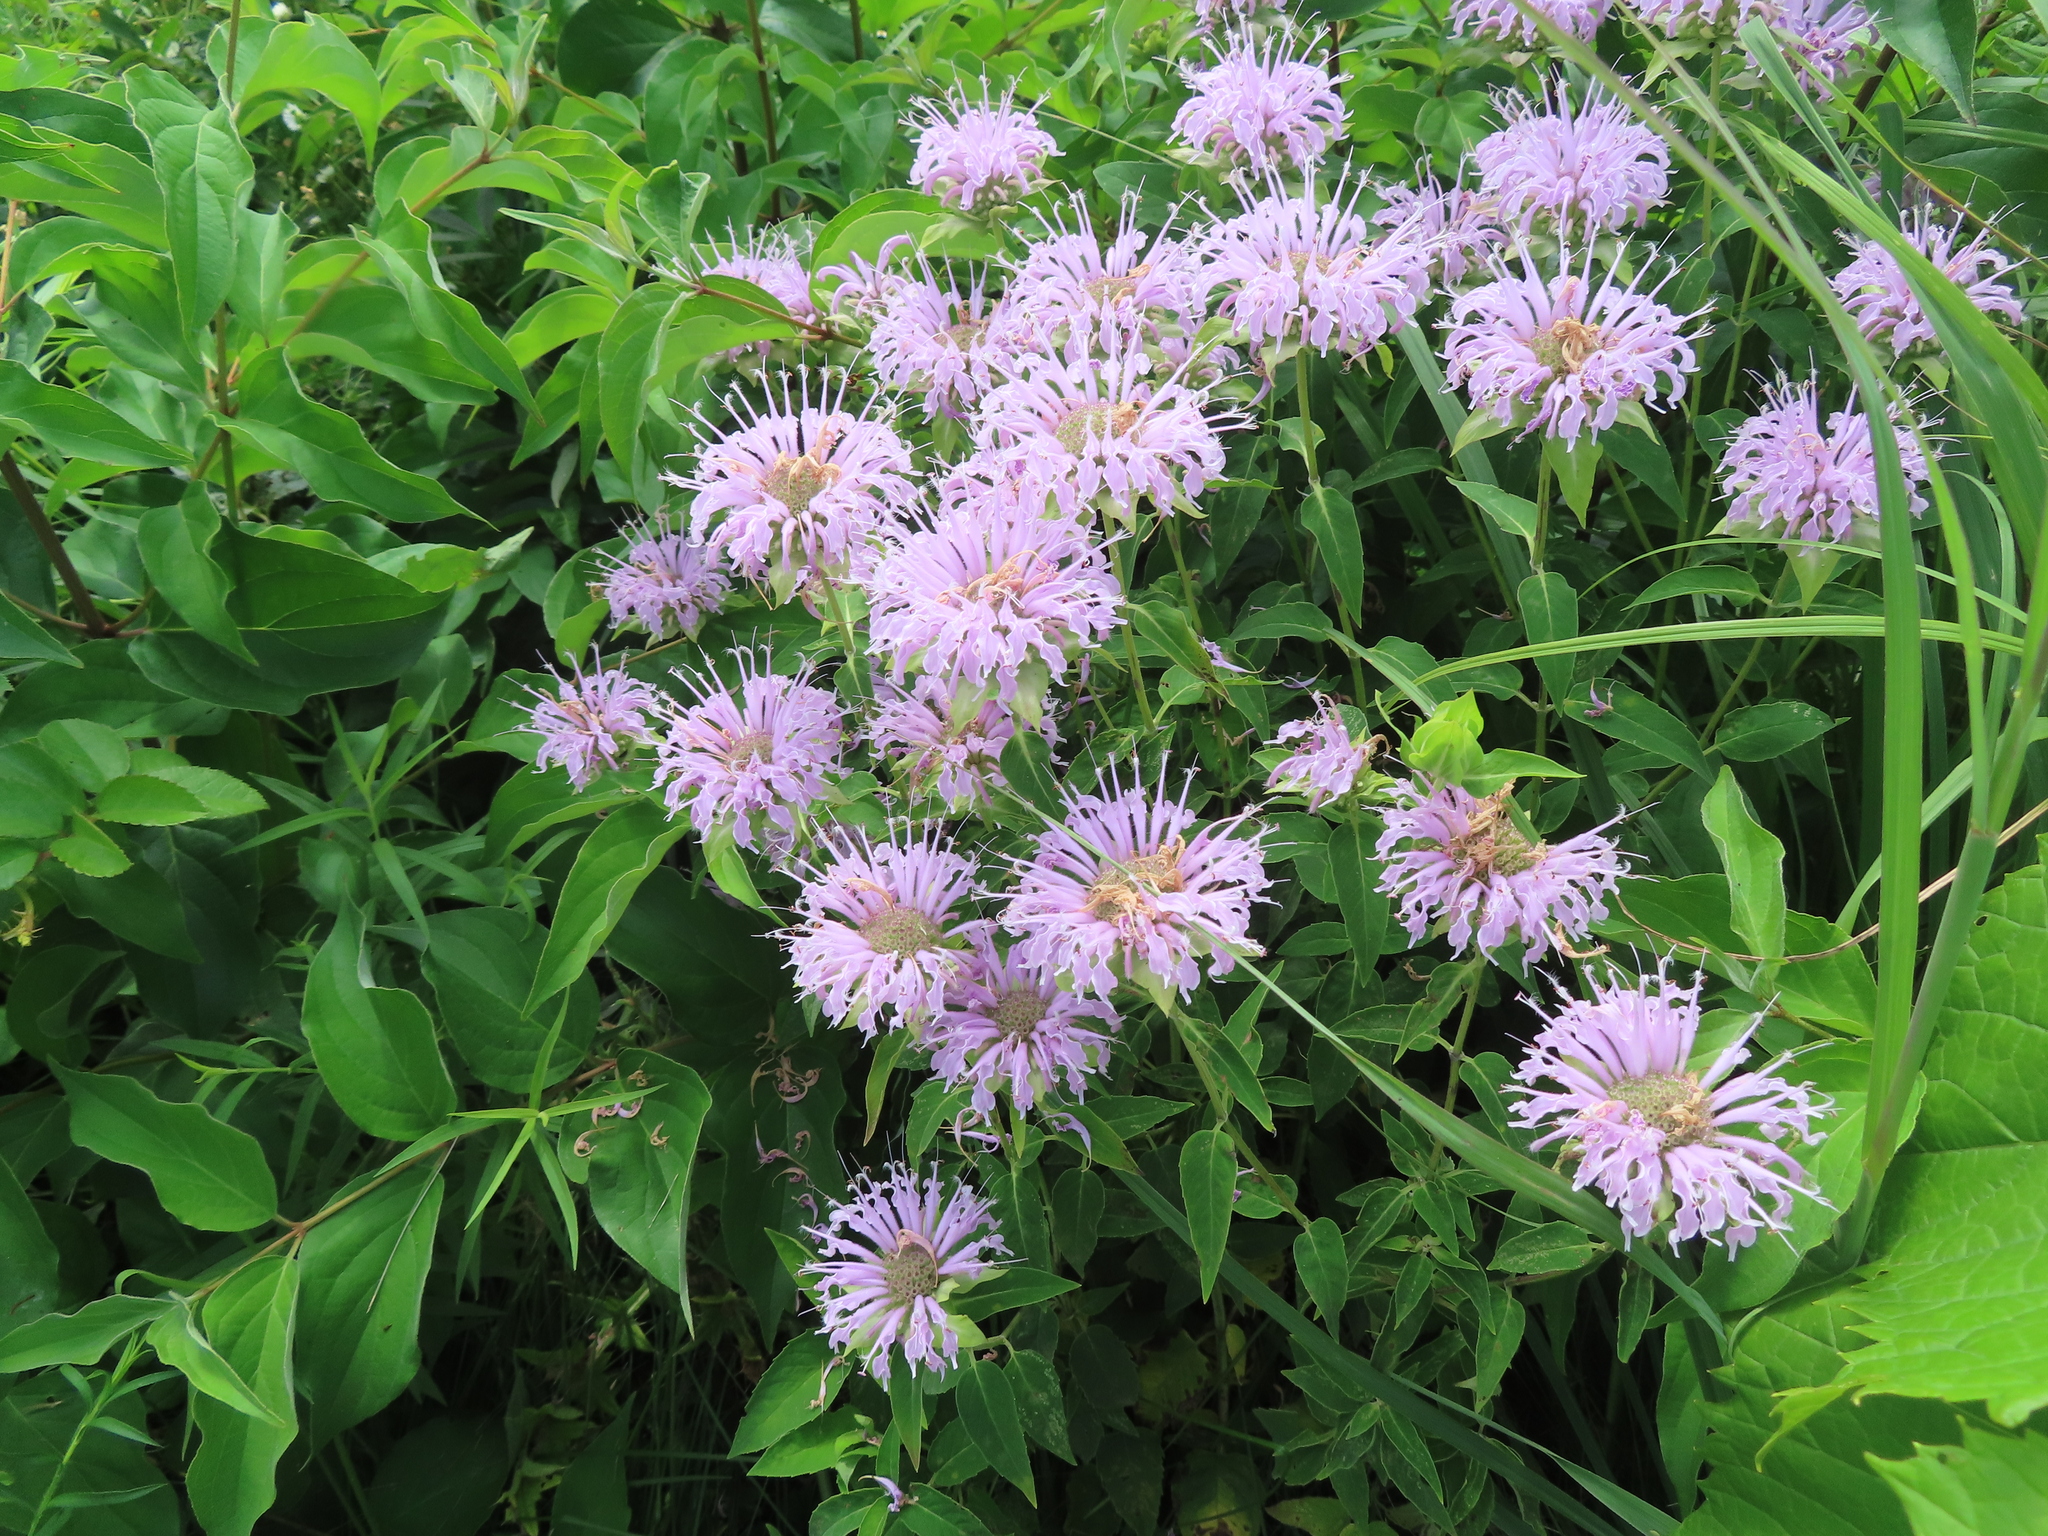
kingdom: Plantae
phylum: Tracheophyta
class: Magnoliopsida
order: Lamiales
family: Lamiaceae
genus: Monarda
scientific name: Monarda fistulosa
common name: Purple beebalm
